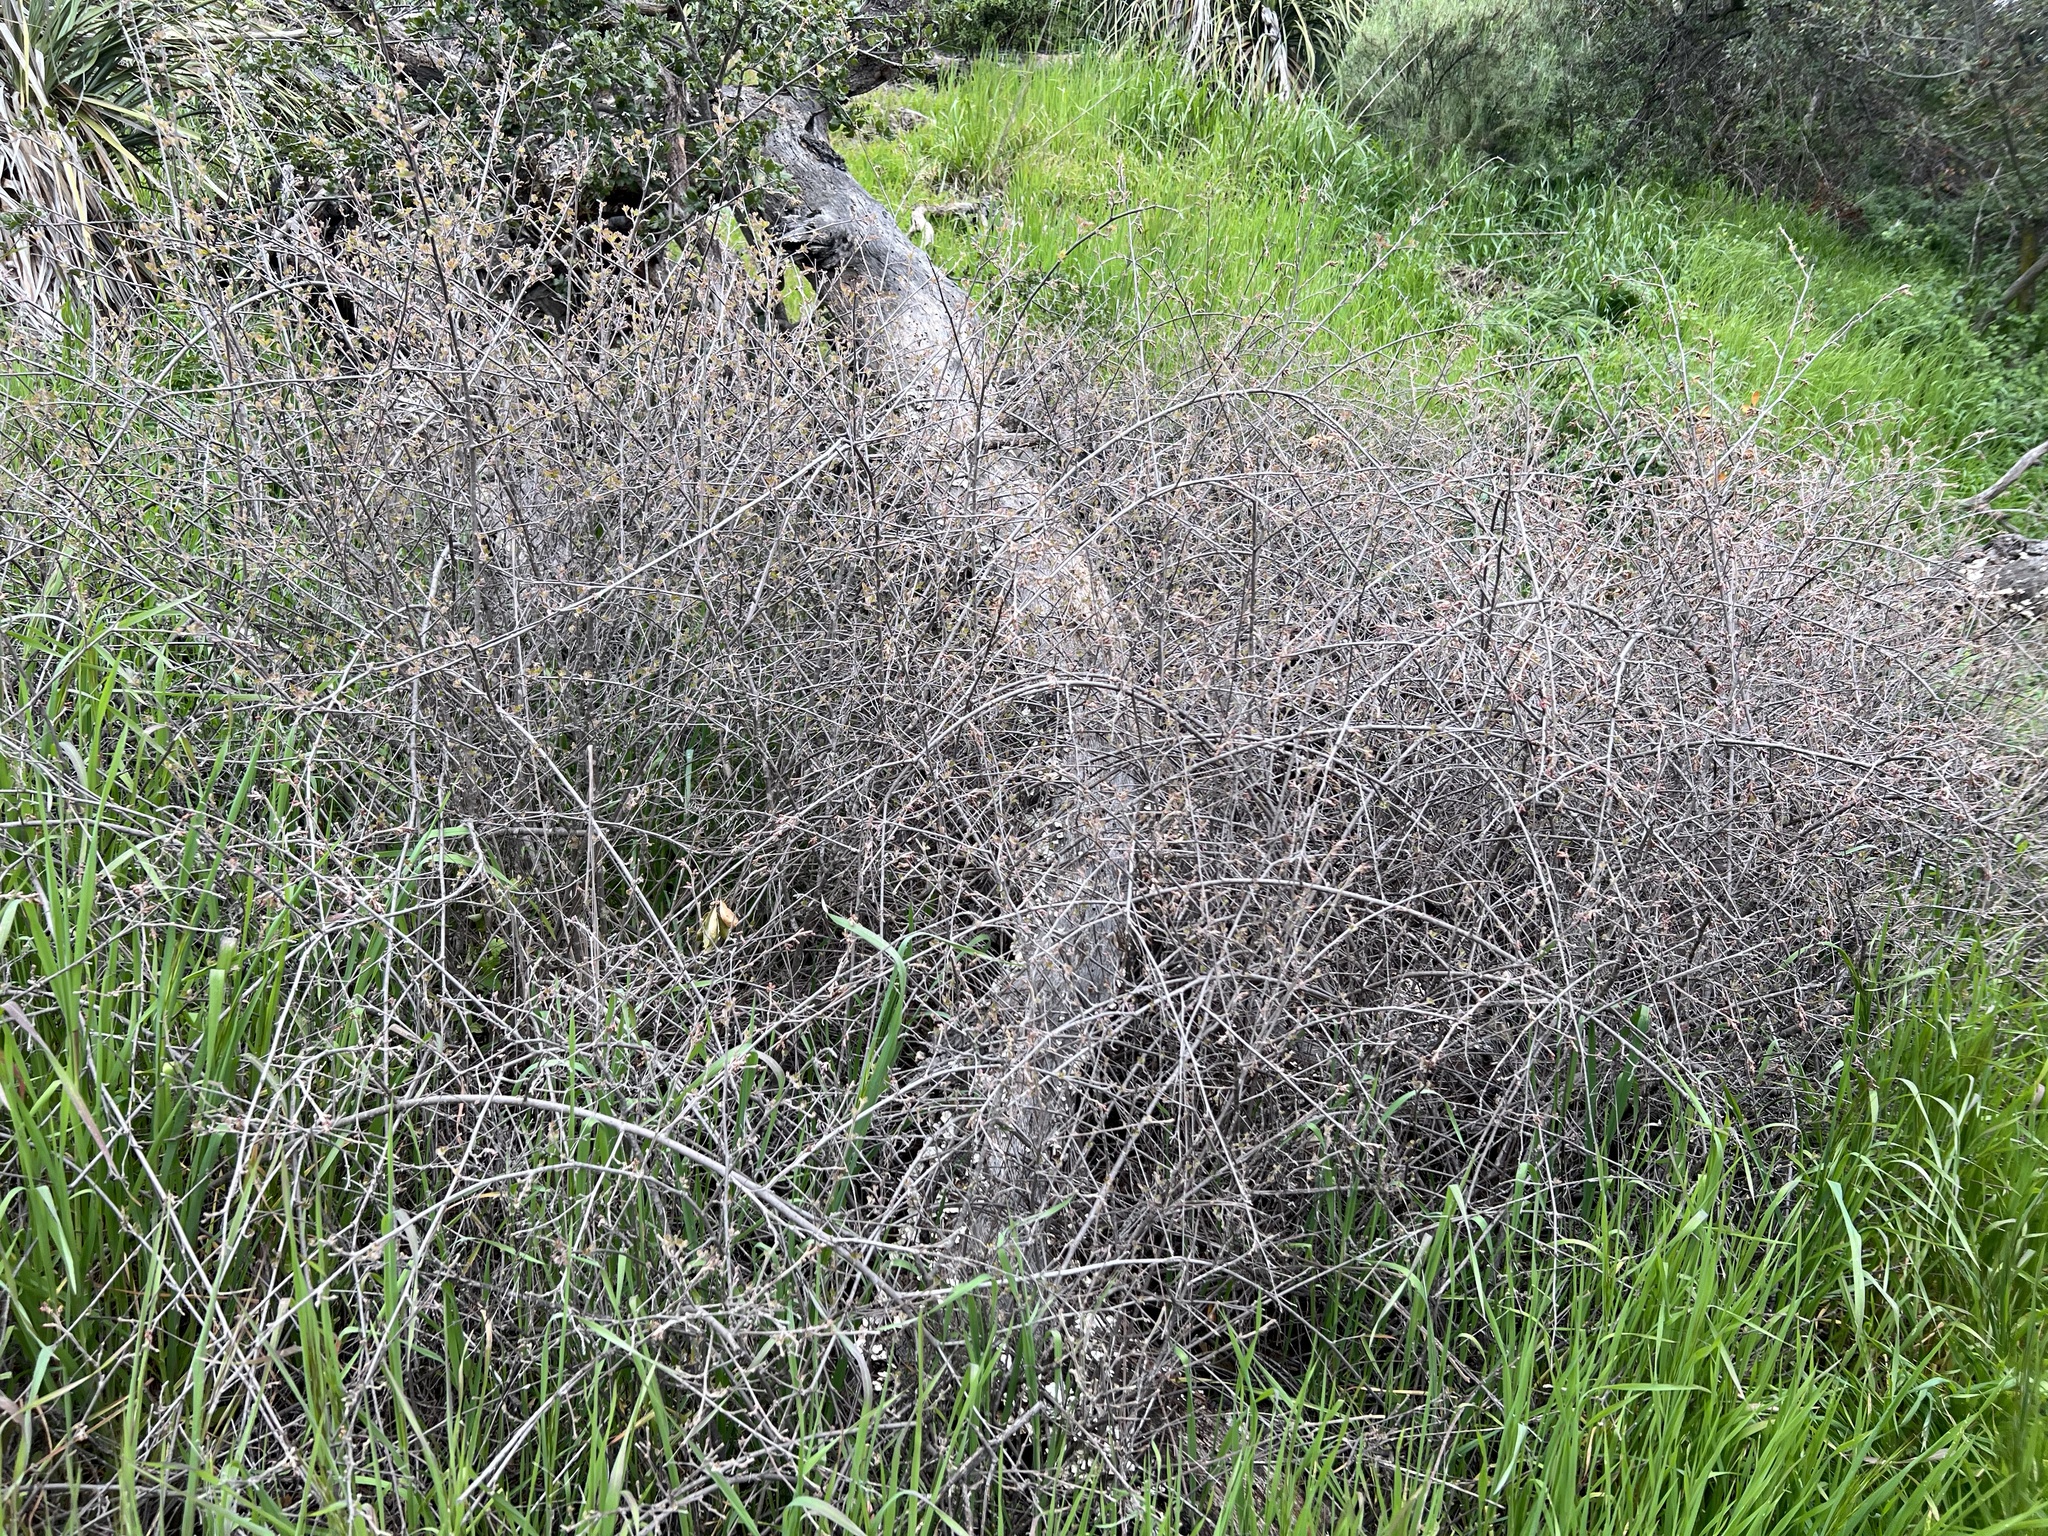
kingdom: Plantae
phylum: Tracheophyta
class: Magnoliopsida
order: Sapindales
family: Anacardiaceae
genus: Rhus
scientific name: Rhus aromatica
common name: Aromatic sumac
